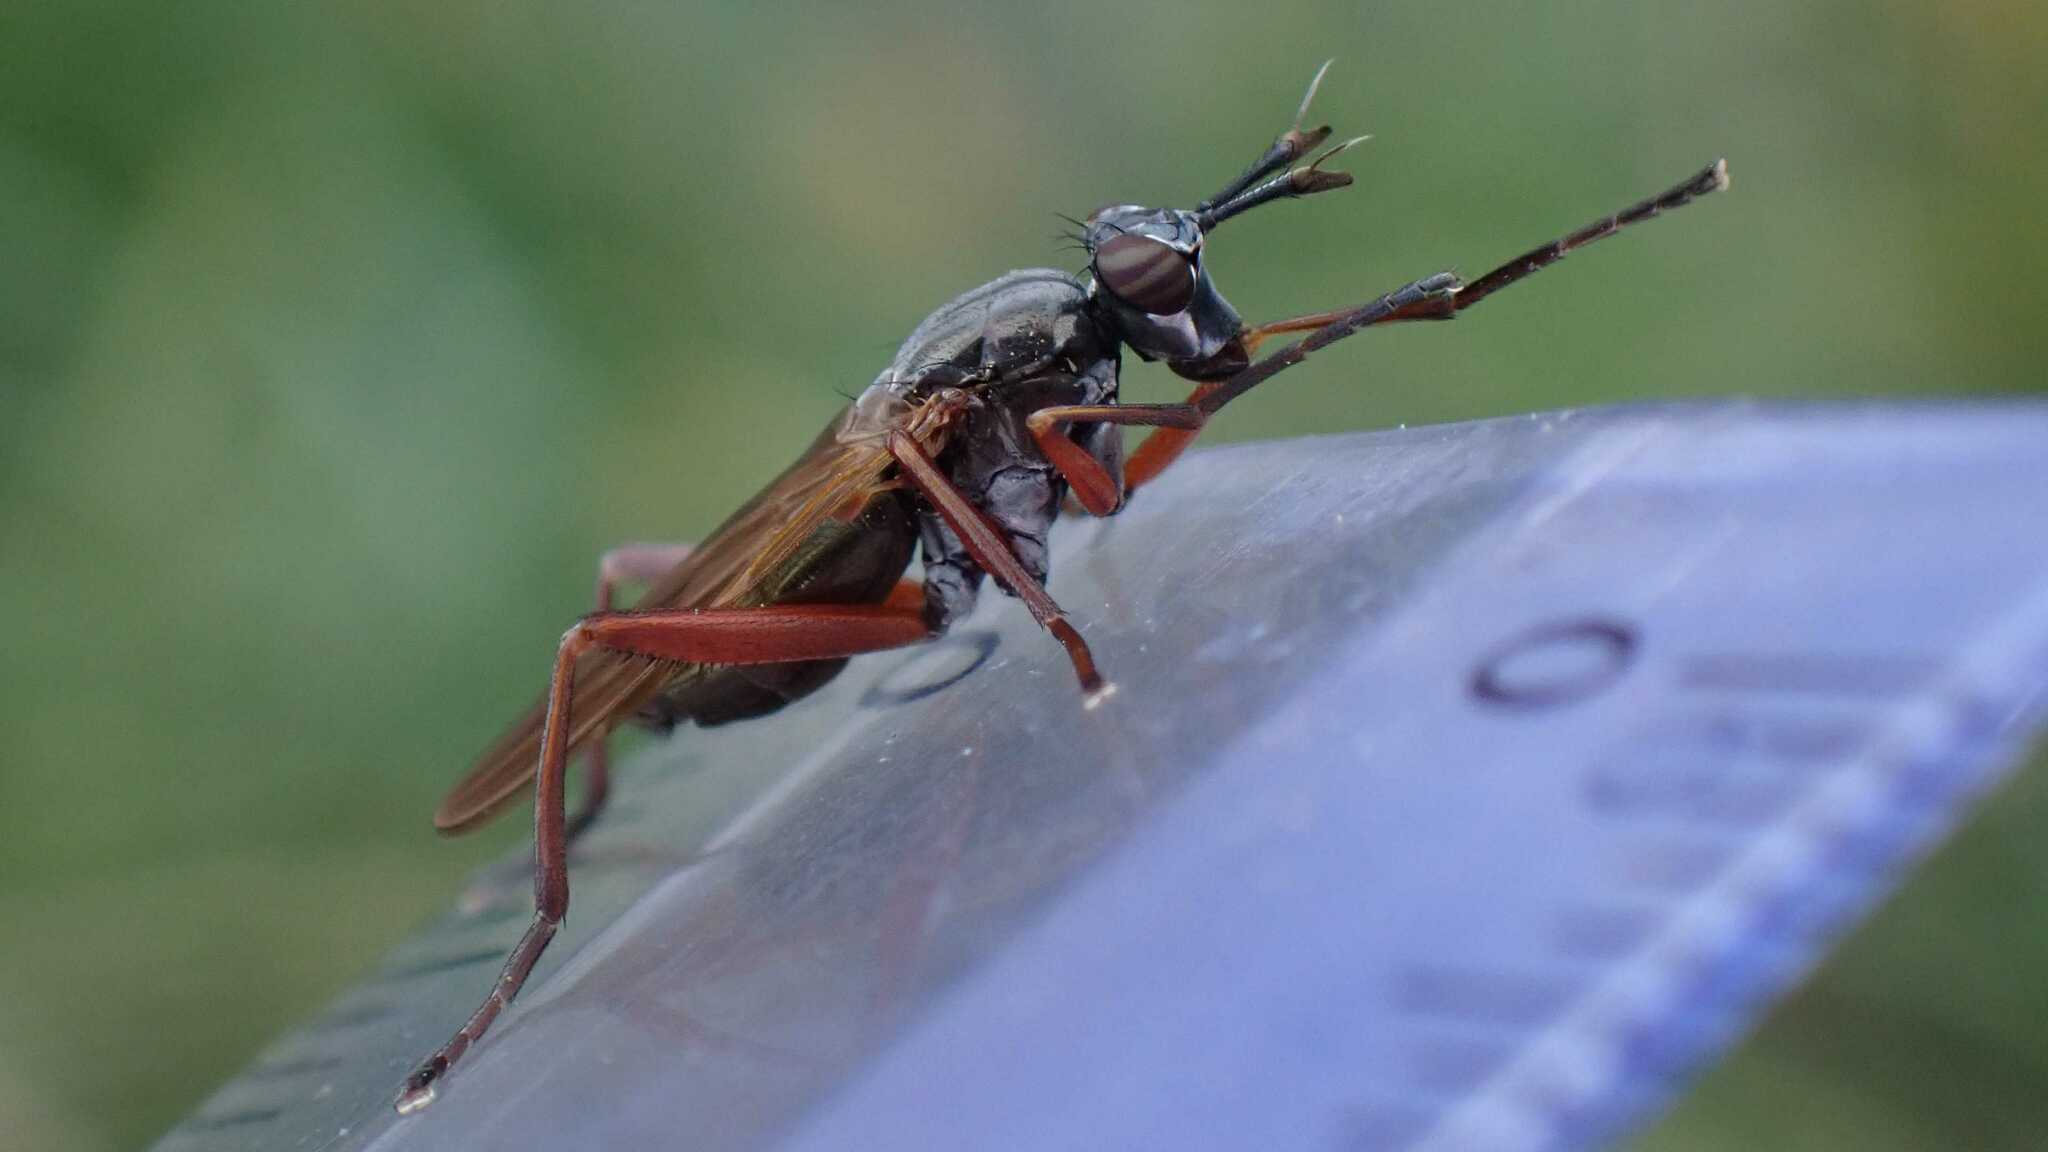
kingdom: Animalia
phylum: Arthropoda
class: Insecta
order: Diptera
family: Sciomyzidae
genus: Sepedon
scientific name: Sepedon sphegea
